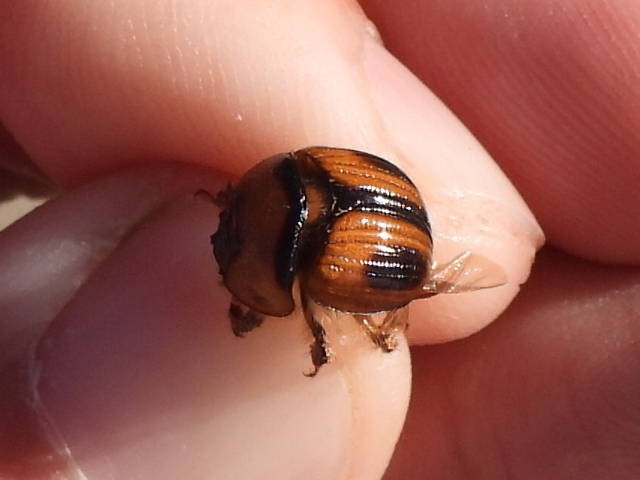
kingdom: Animalia
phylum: Arthropoda
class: Insecta
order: Coleoptera
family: Geotrupidae
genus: Bolbocerosoma
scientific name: Bolbocerosoma confusum
